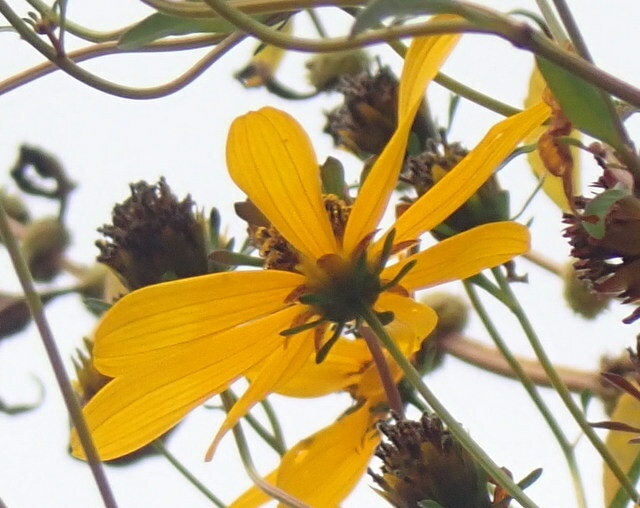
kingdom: Plantae
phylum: Tracheophyta
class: Magnoliopsida
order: Asterales
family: Asteraceae
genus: Bidens
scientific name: Bidens mitis
